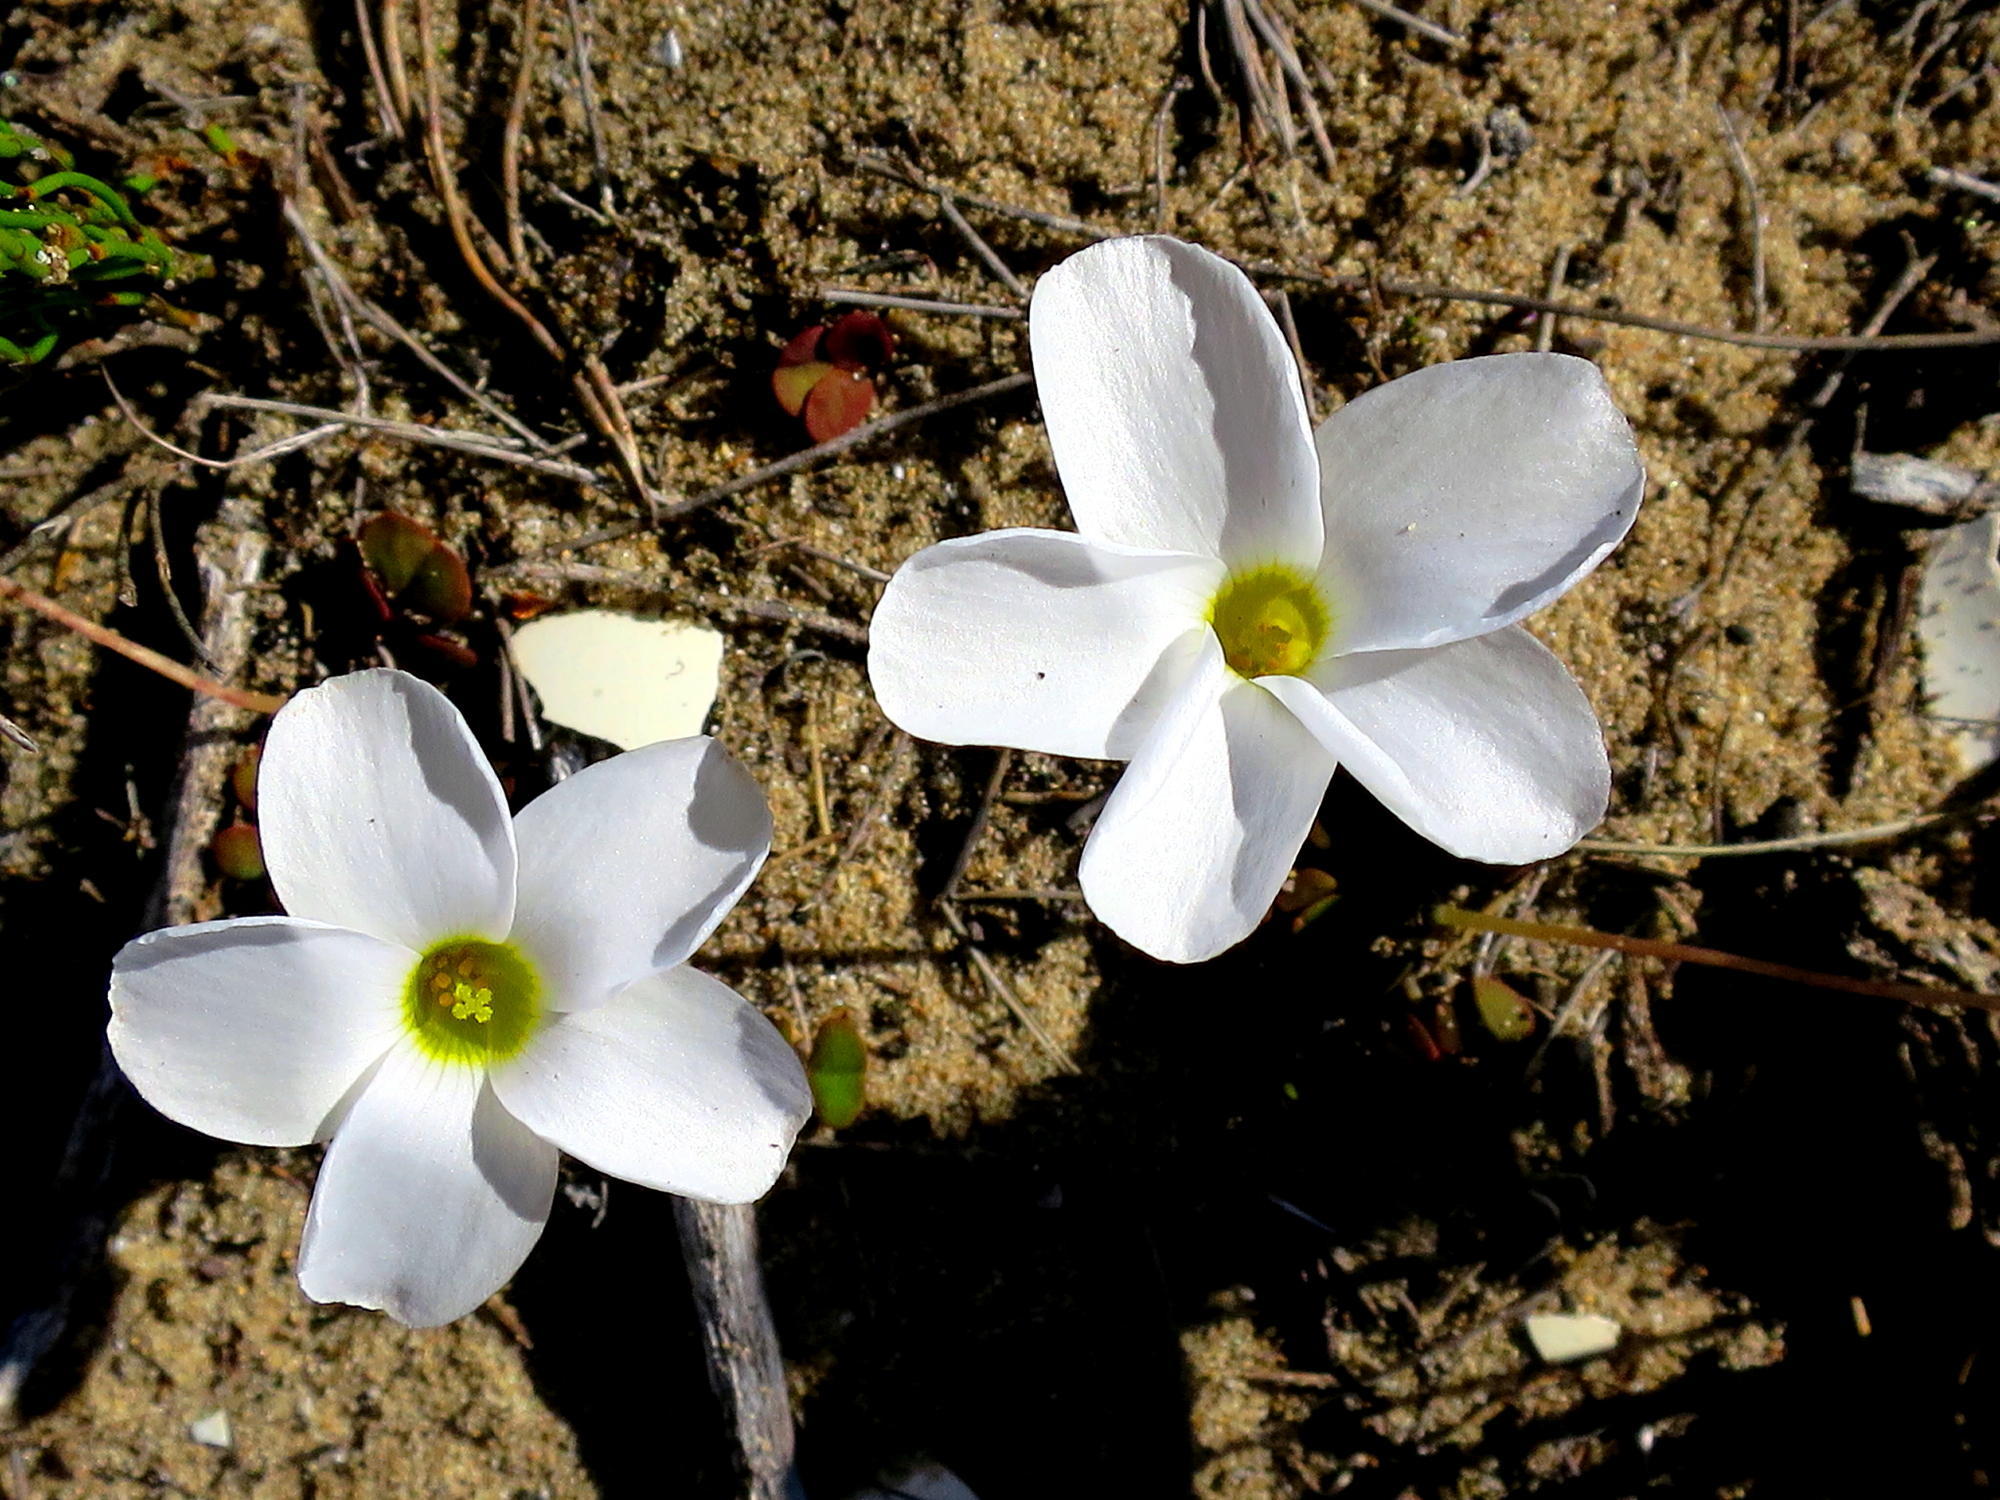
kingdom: Plantae
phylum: Tracheophyta
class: Magnoliopsida
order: Oxalidales
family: Oxalidaceae
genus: Oxalis
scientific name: Oxalis depressa
